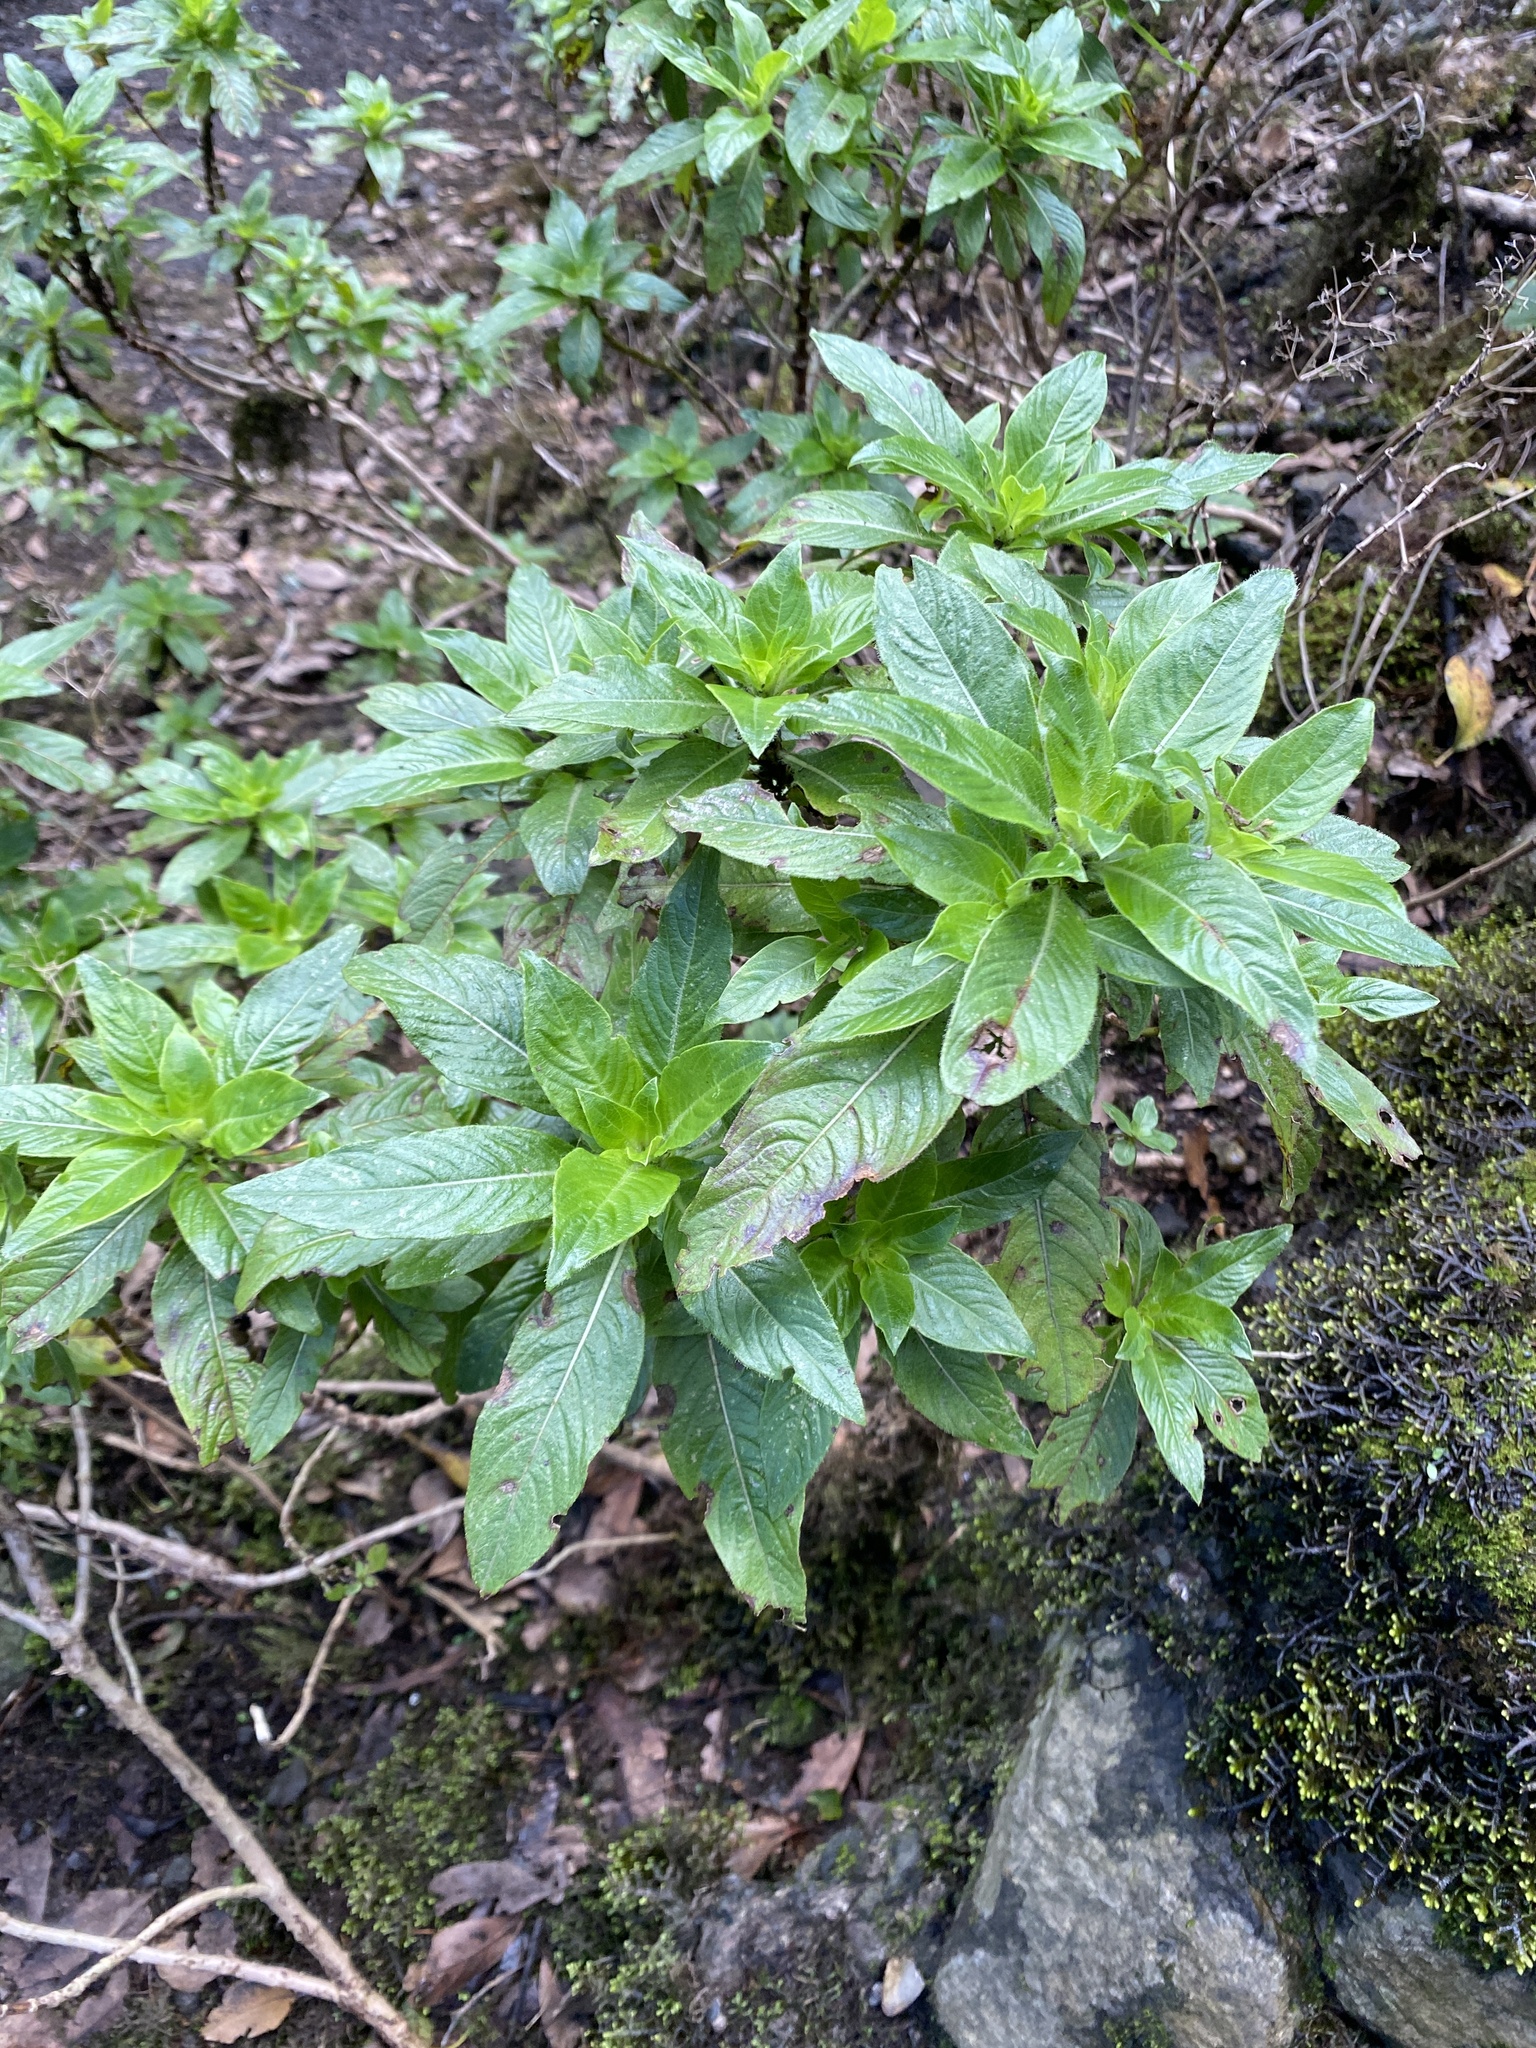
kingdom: Plantae
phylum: Tracheophyta
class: Magnoliopsida
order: Gentianales
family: Rubiaceae
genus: Phyllis
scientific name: Phyllis nobla
